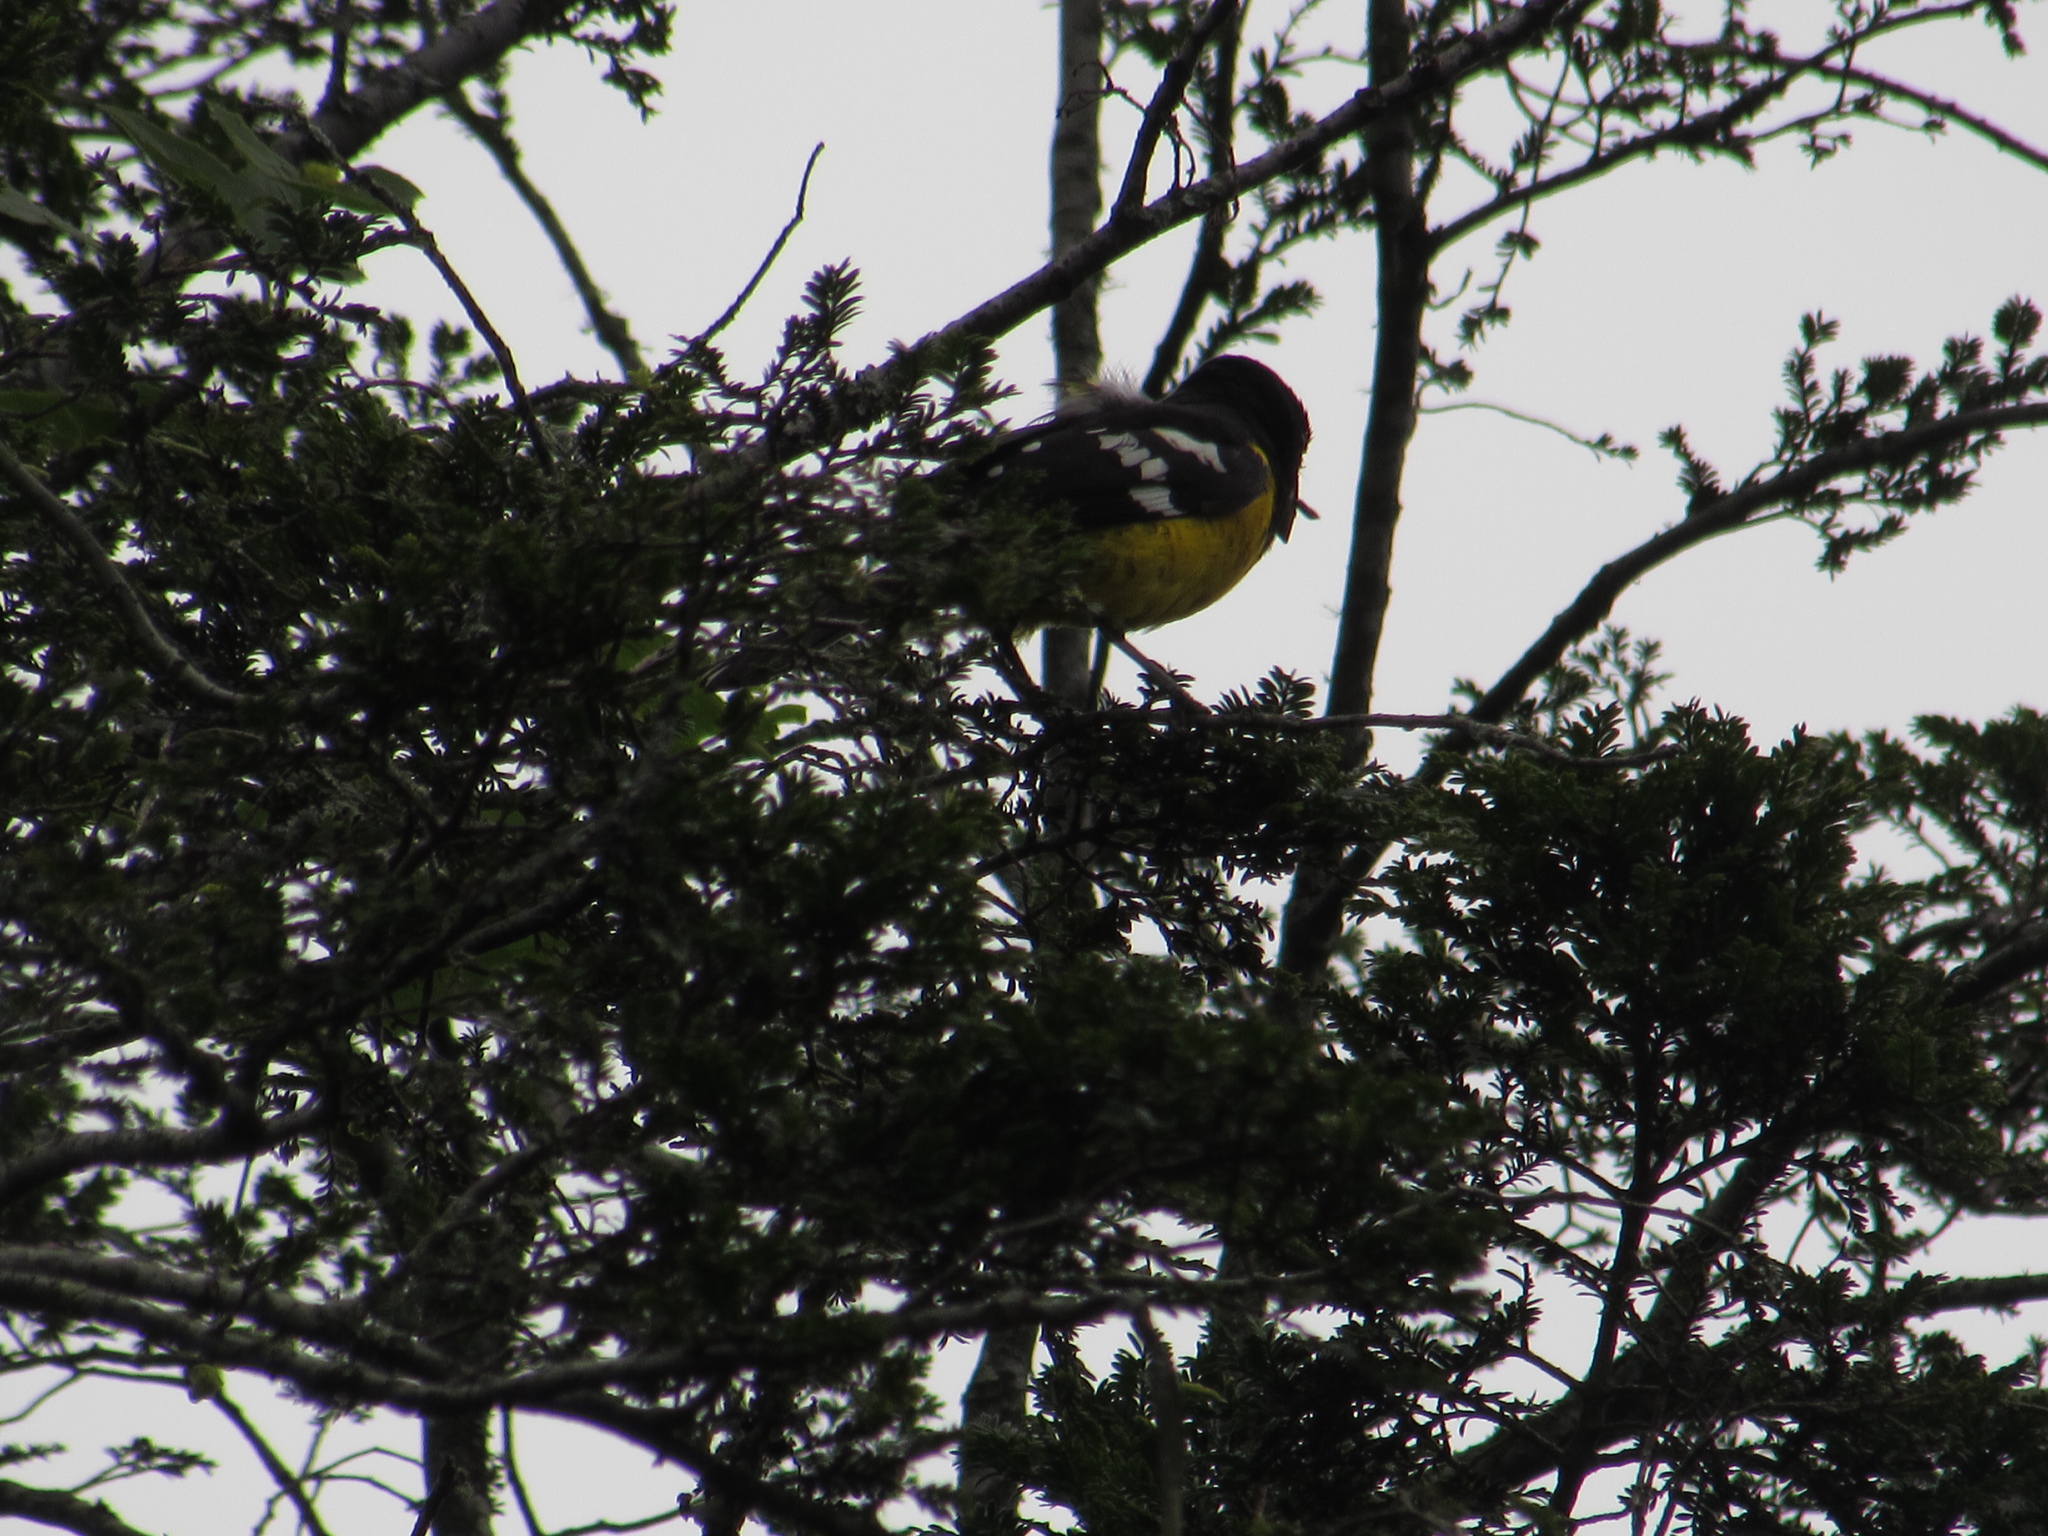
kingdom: Animalia
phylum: Chordata
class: Aves
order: Passeriformes
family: Cardinalidae
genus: Pheucticus
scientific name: Pheucticus aureoventris
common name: Black-backed grosbeak
